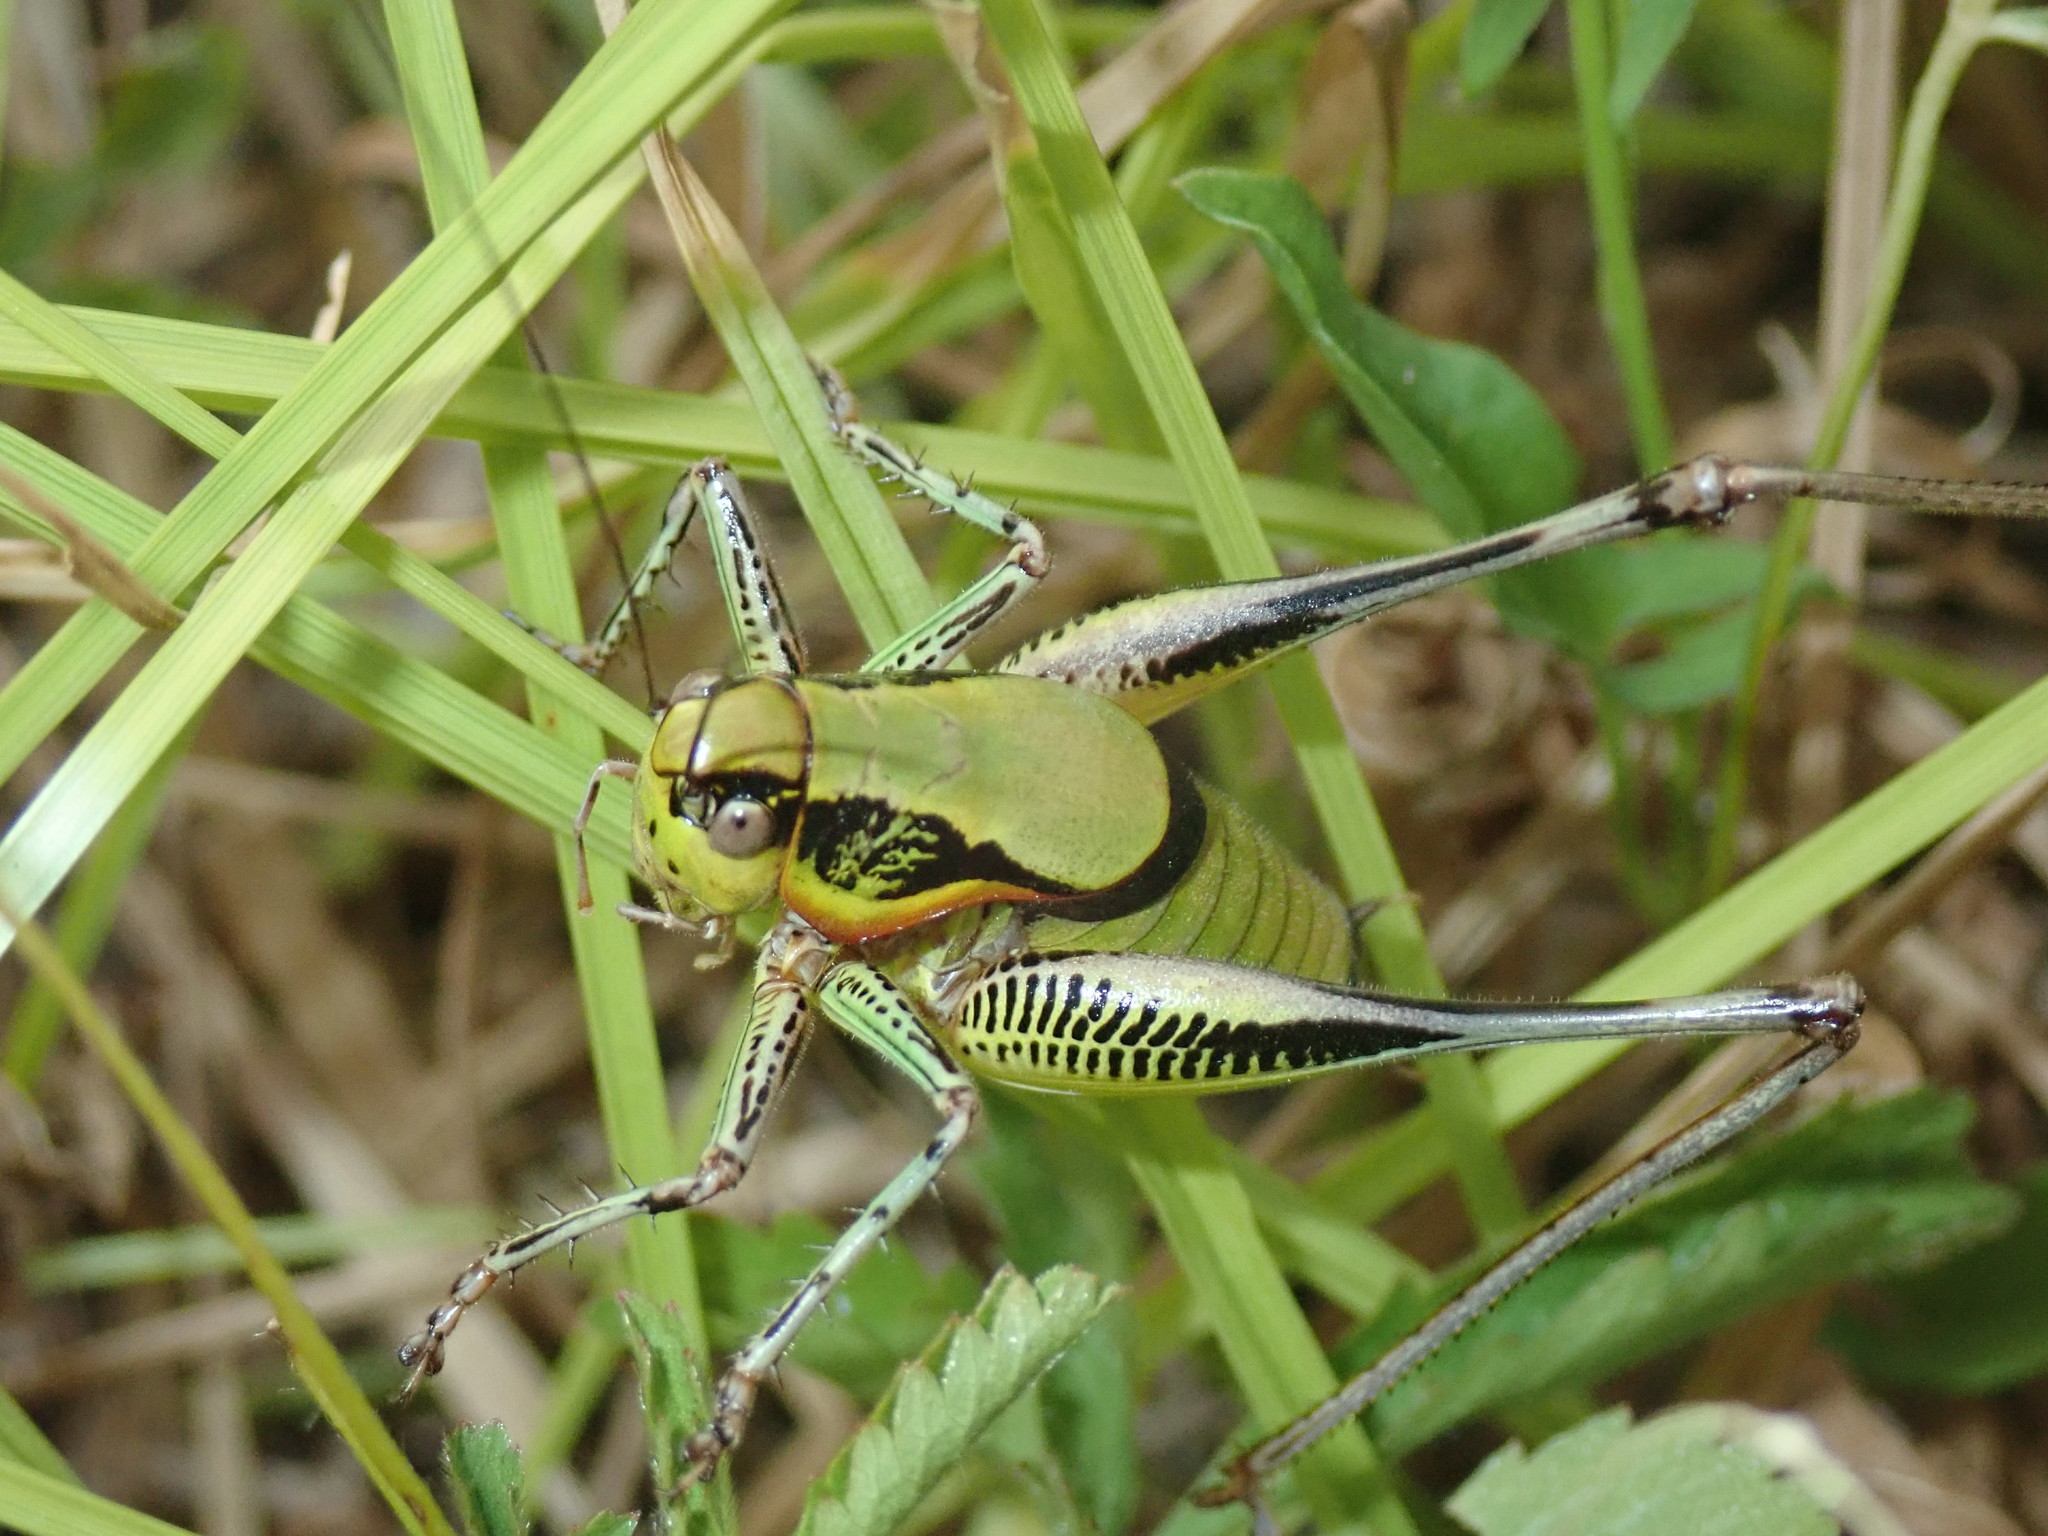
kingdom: Animalia
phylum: Arthropoda
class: Insecta
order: Orthoptera
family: Tettigoniidae
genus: Eupholidoptera
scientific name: Eupholidoptera schmidti
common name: Schmidt's marbled bush-cricket
